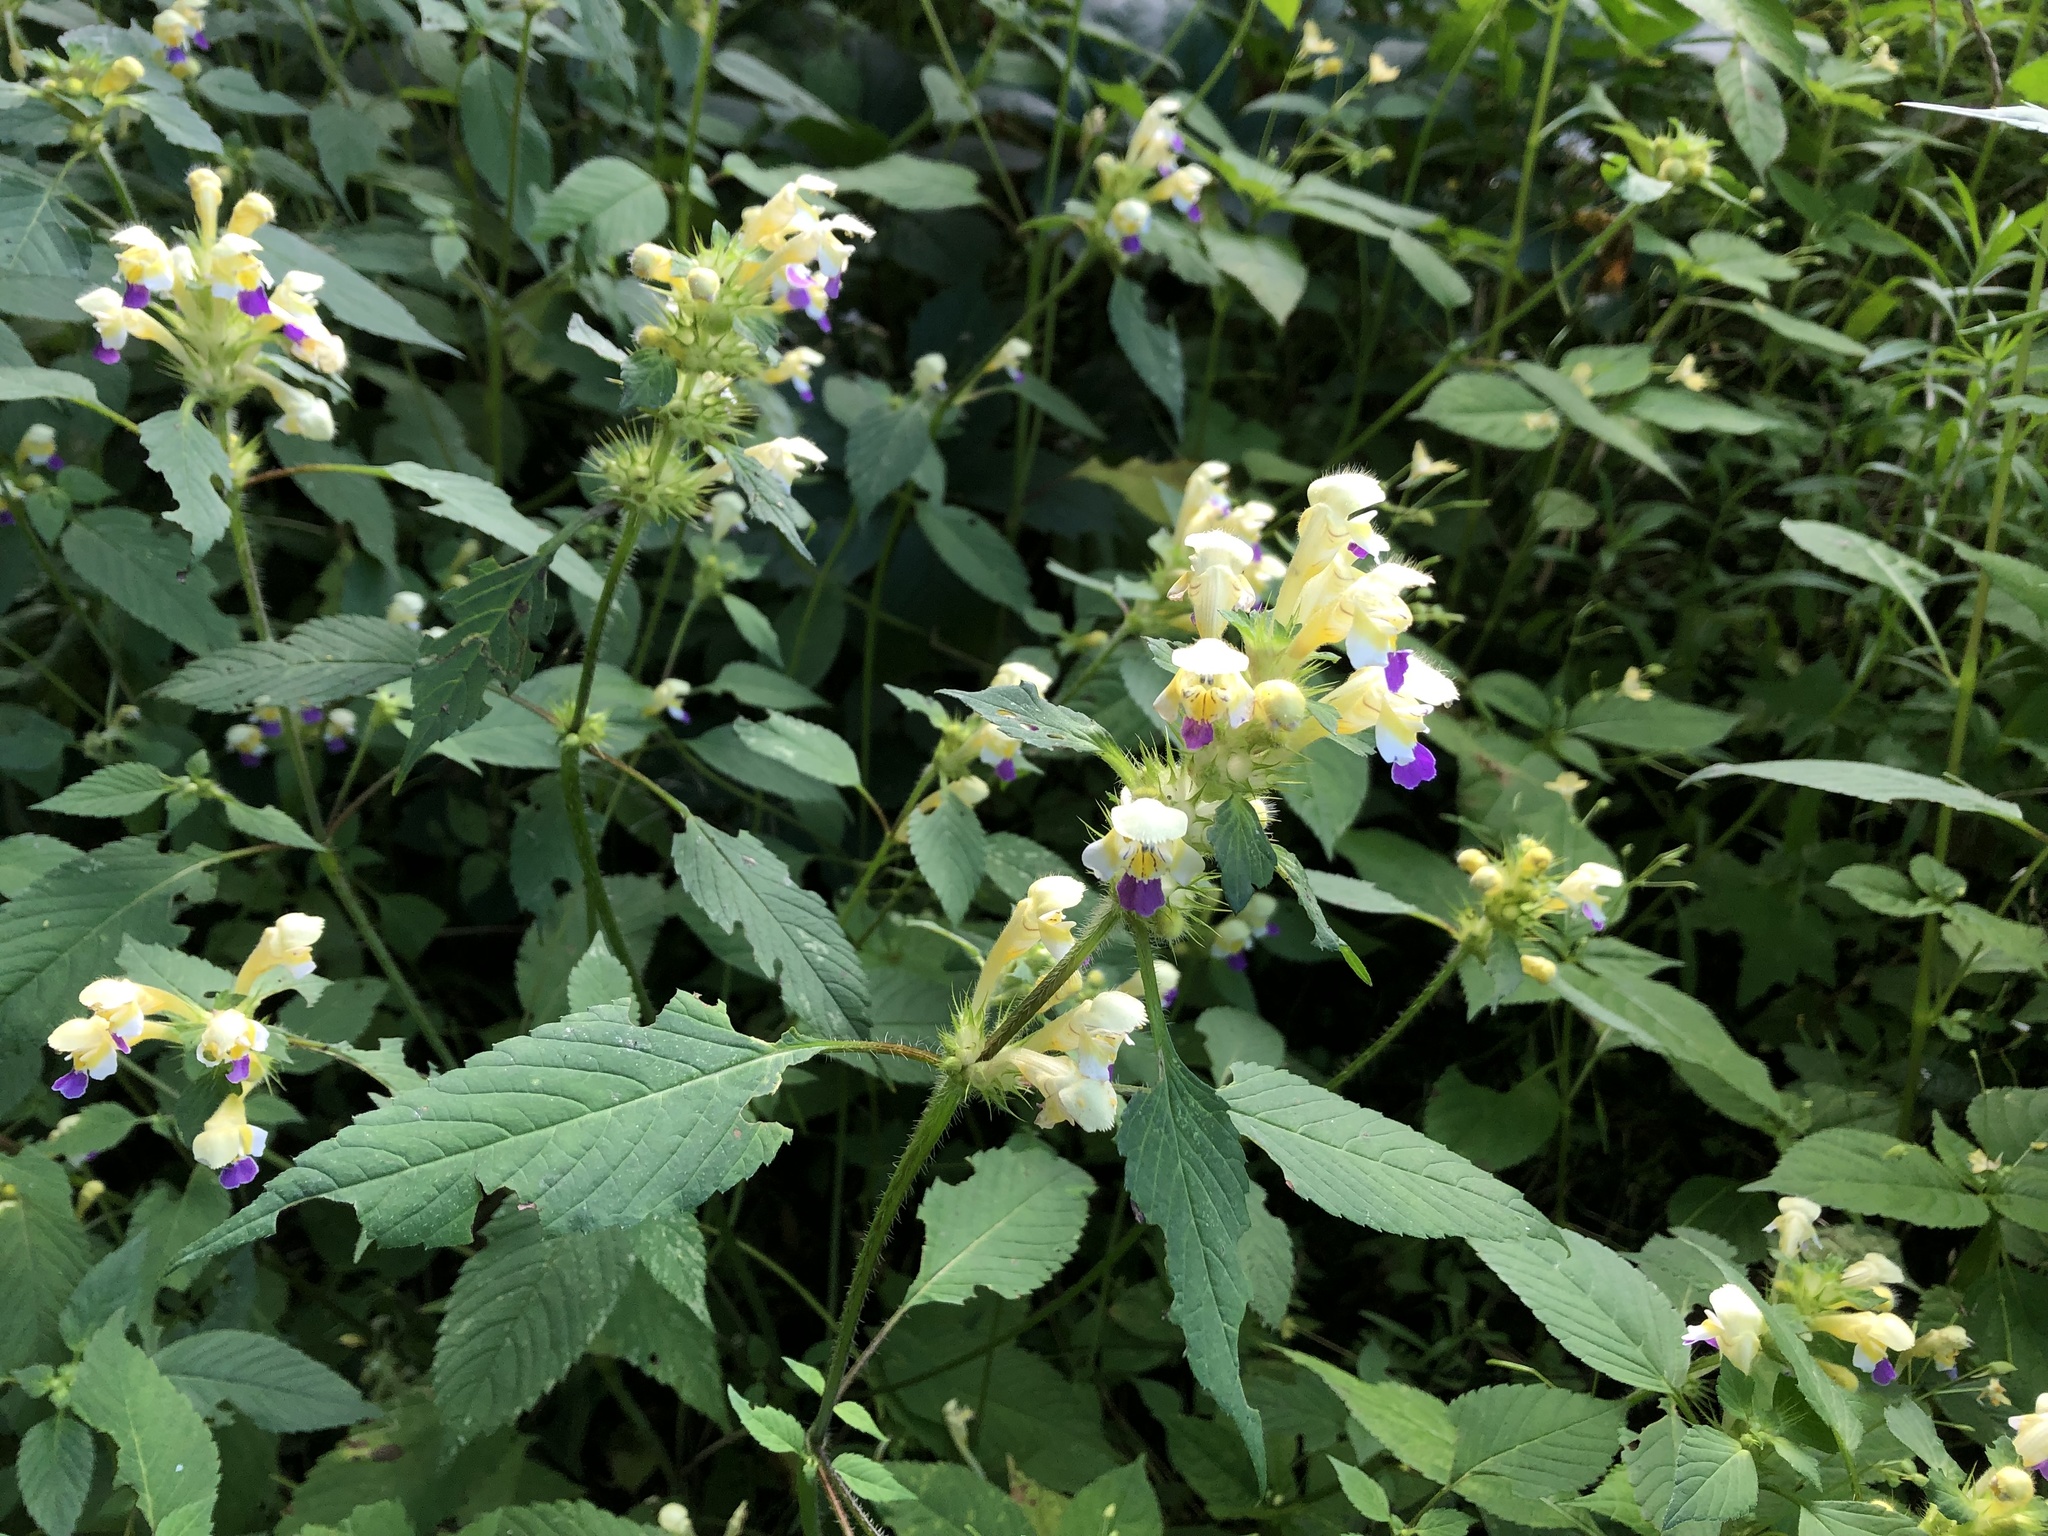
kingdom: Plantae
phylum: Tracheophyta
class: Magnoliopsida
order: Lamiales
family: Lamiaceae
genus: Galeopsis
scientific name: Galeopsis speciosa
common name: Large-flowered hemp-nettle
